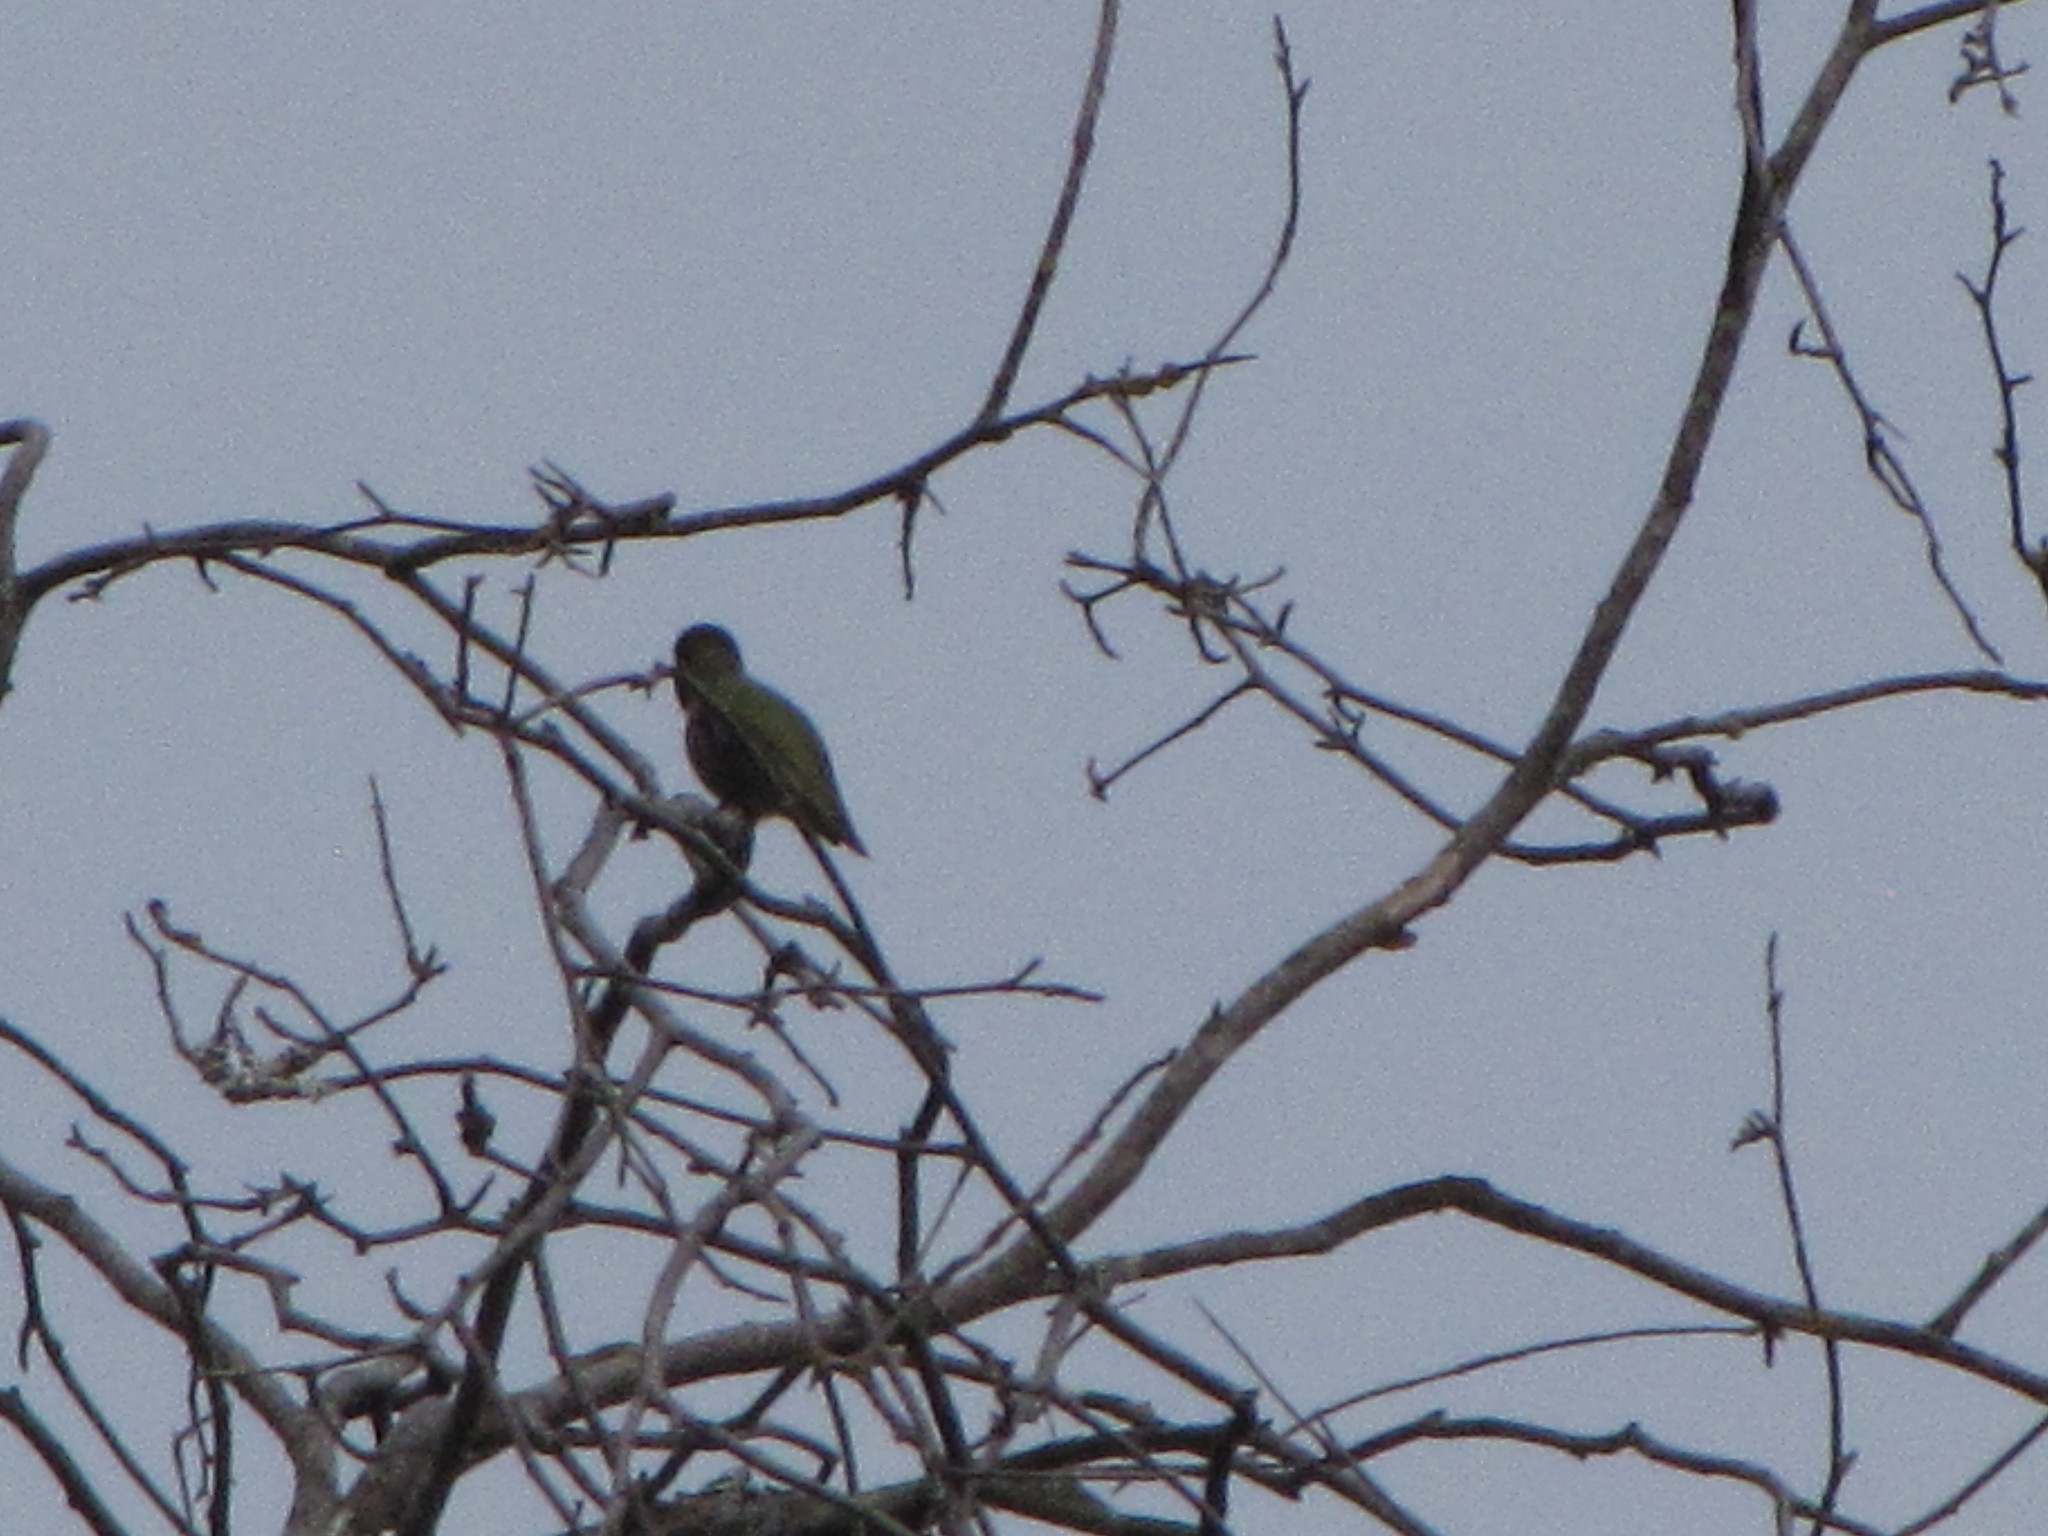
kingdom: Animalia
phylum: Chordata
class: Aves
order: Apodiformes
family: Trochilidae
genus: Calypte
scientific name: Calypte anna
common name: Anna's hummingbird
